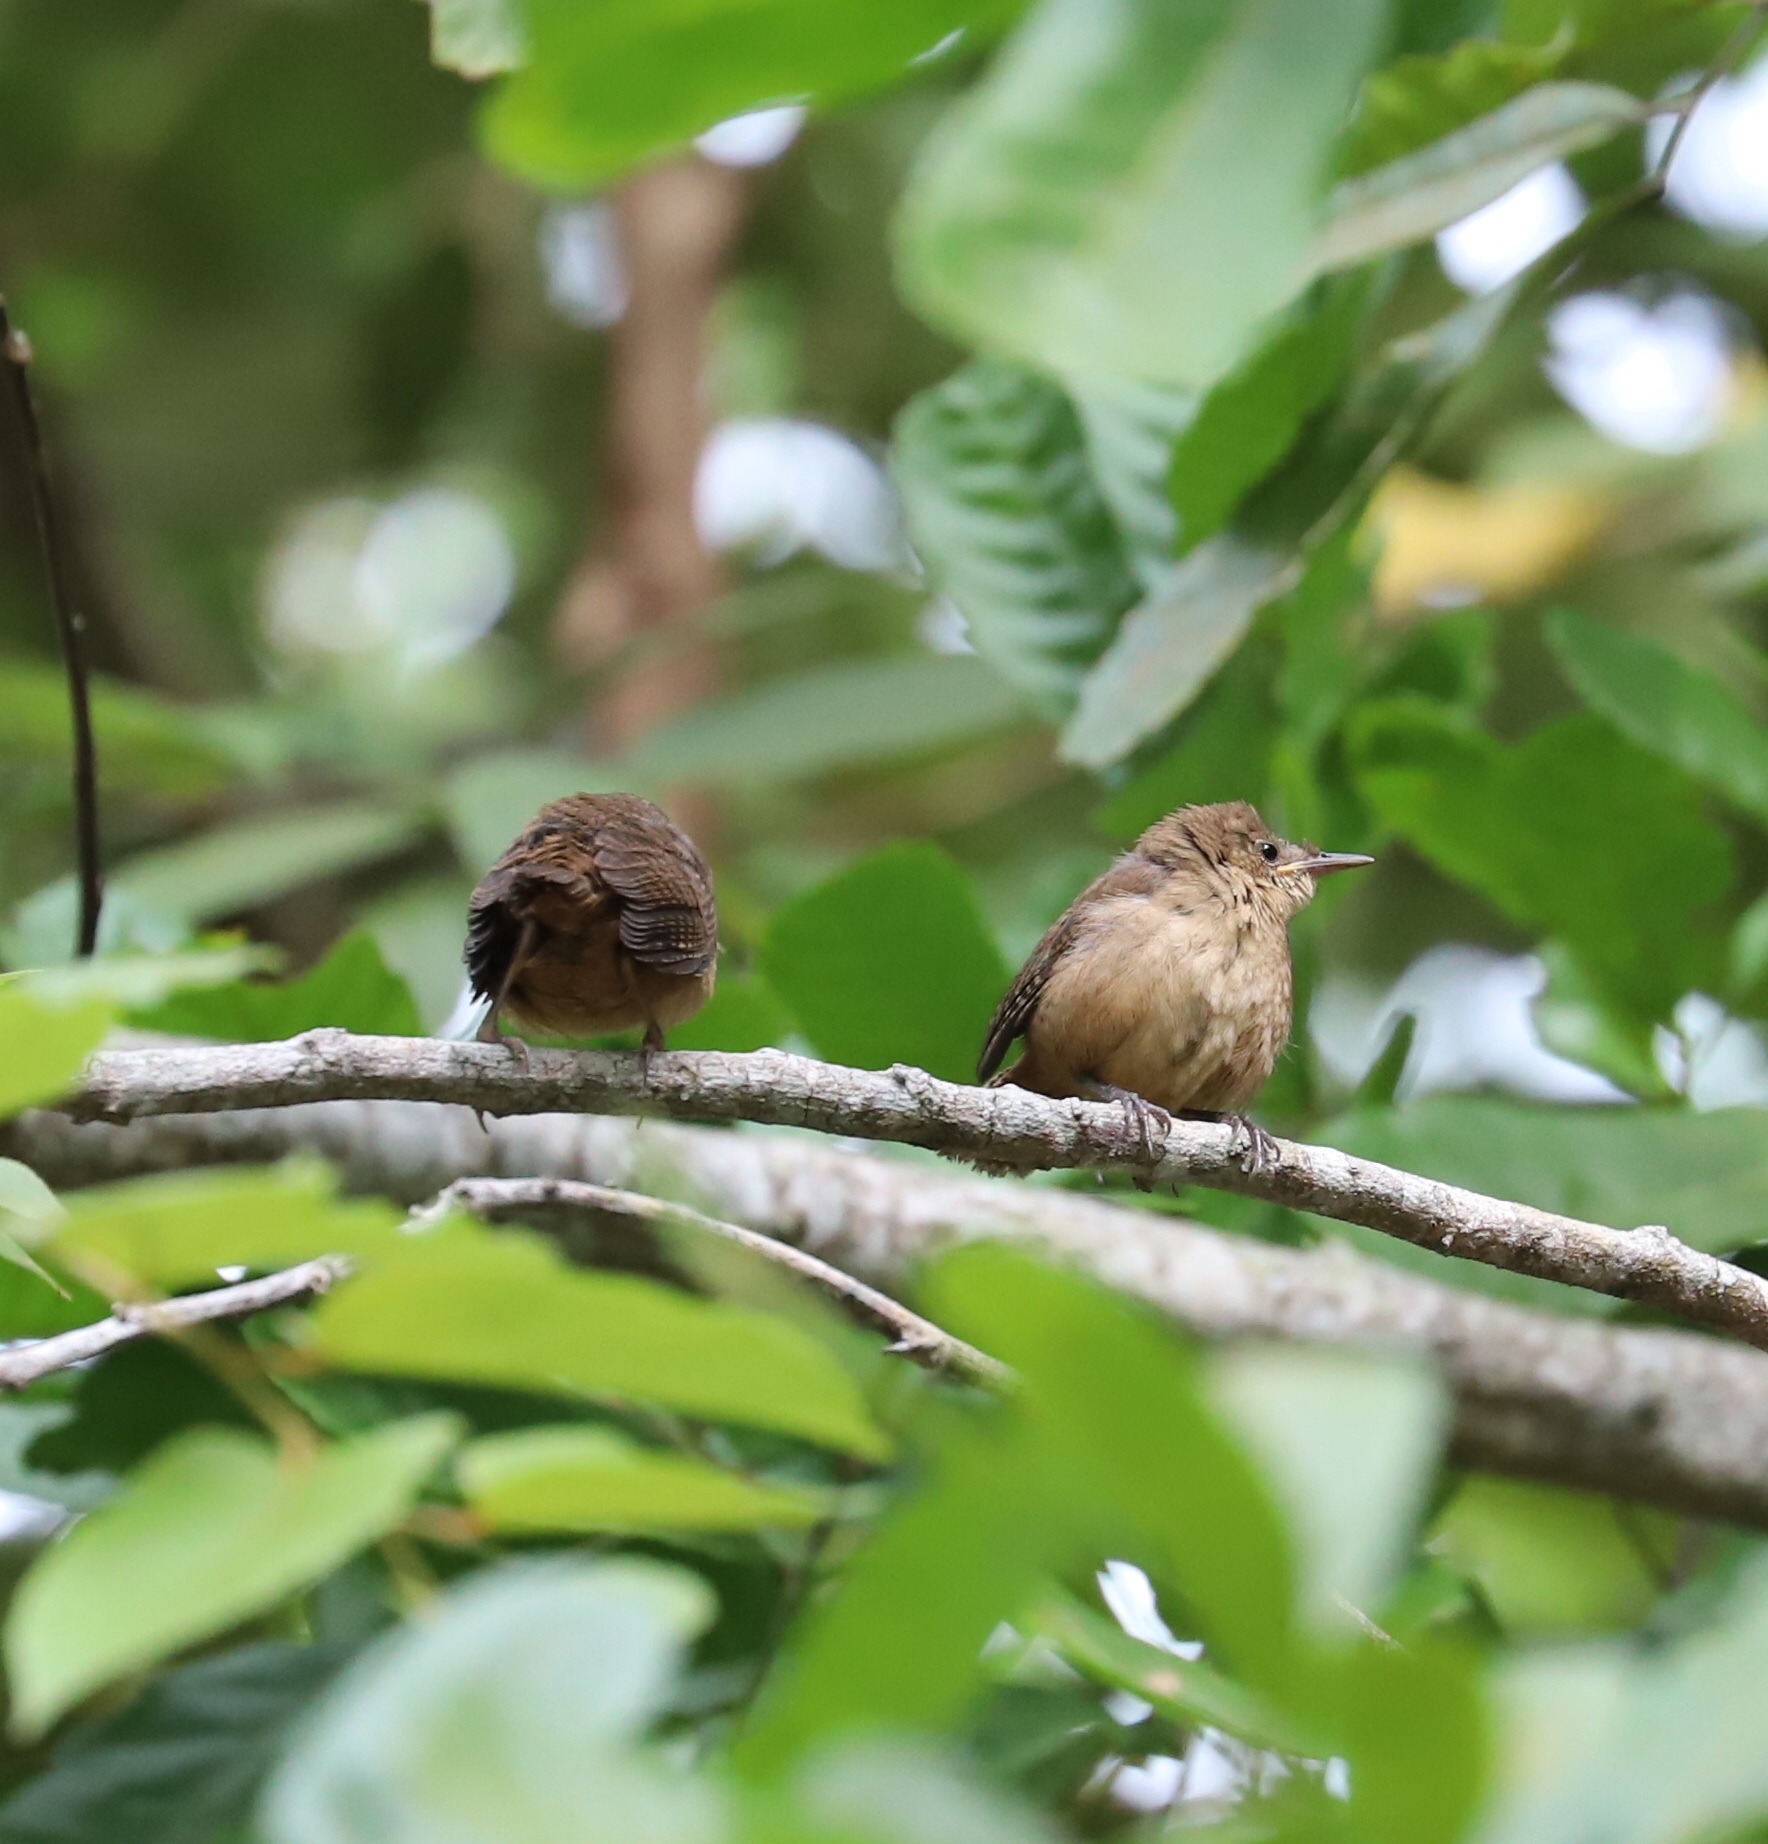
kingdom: Animalia
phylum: Chordata
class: Aves
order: Passeriformes
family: Troglodytidae
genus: Troglodytes
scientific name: Troglodytes aedon
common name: House wren
